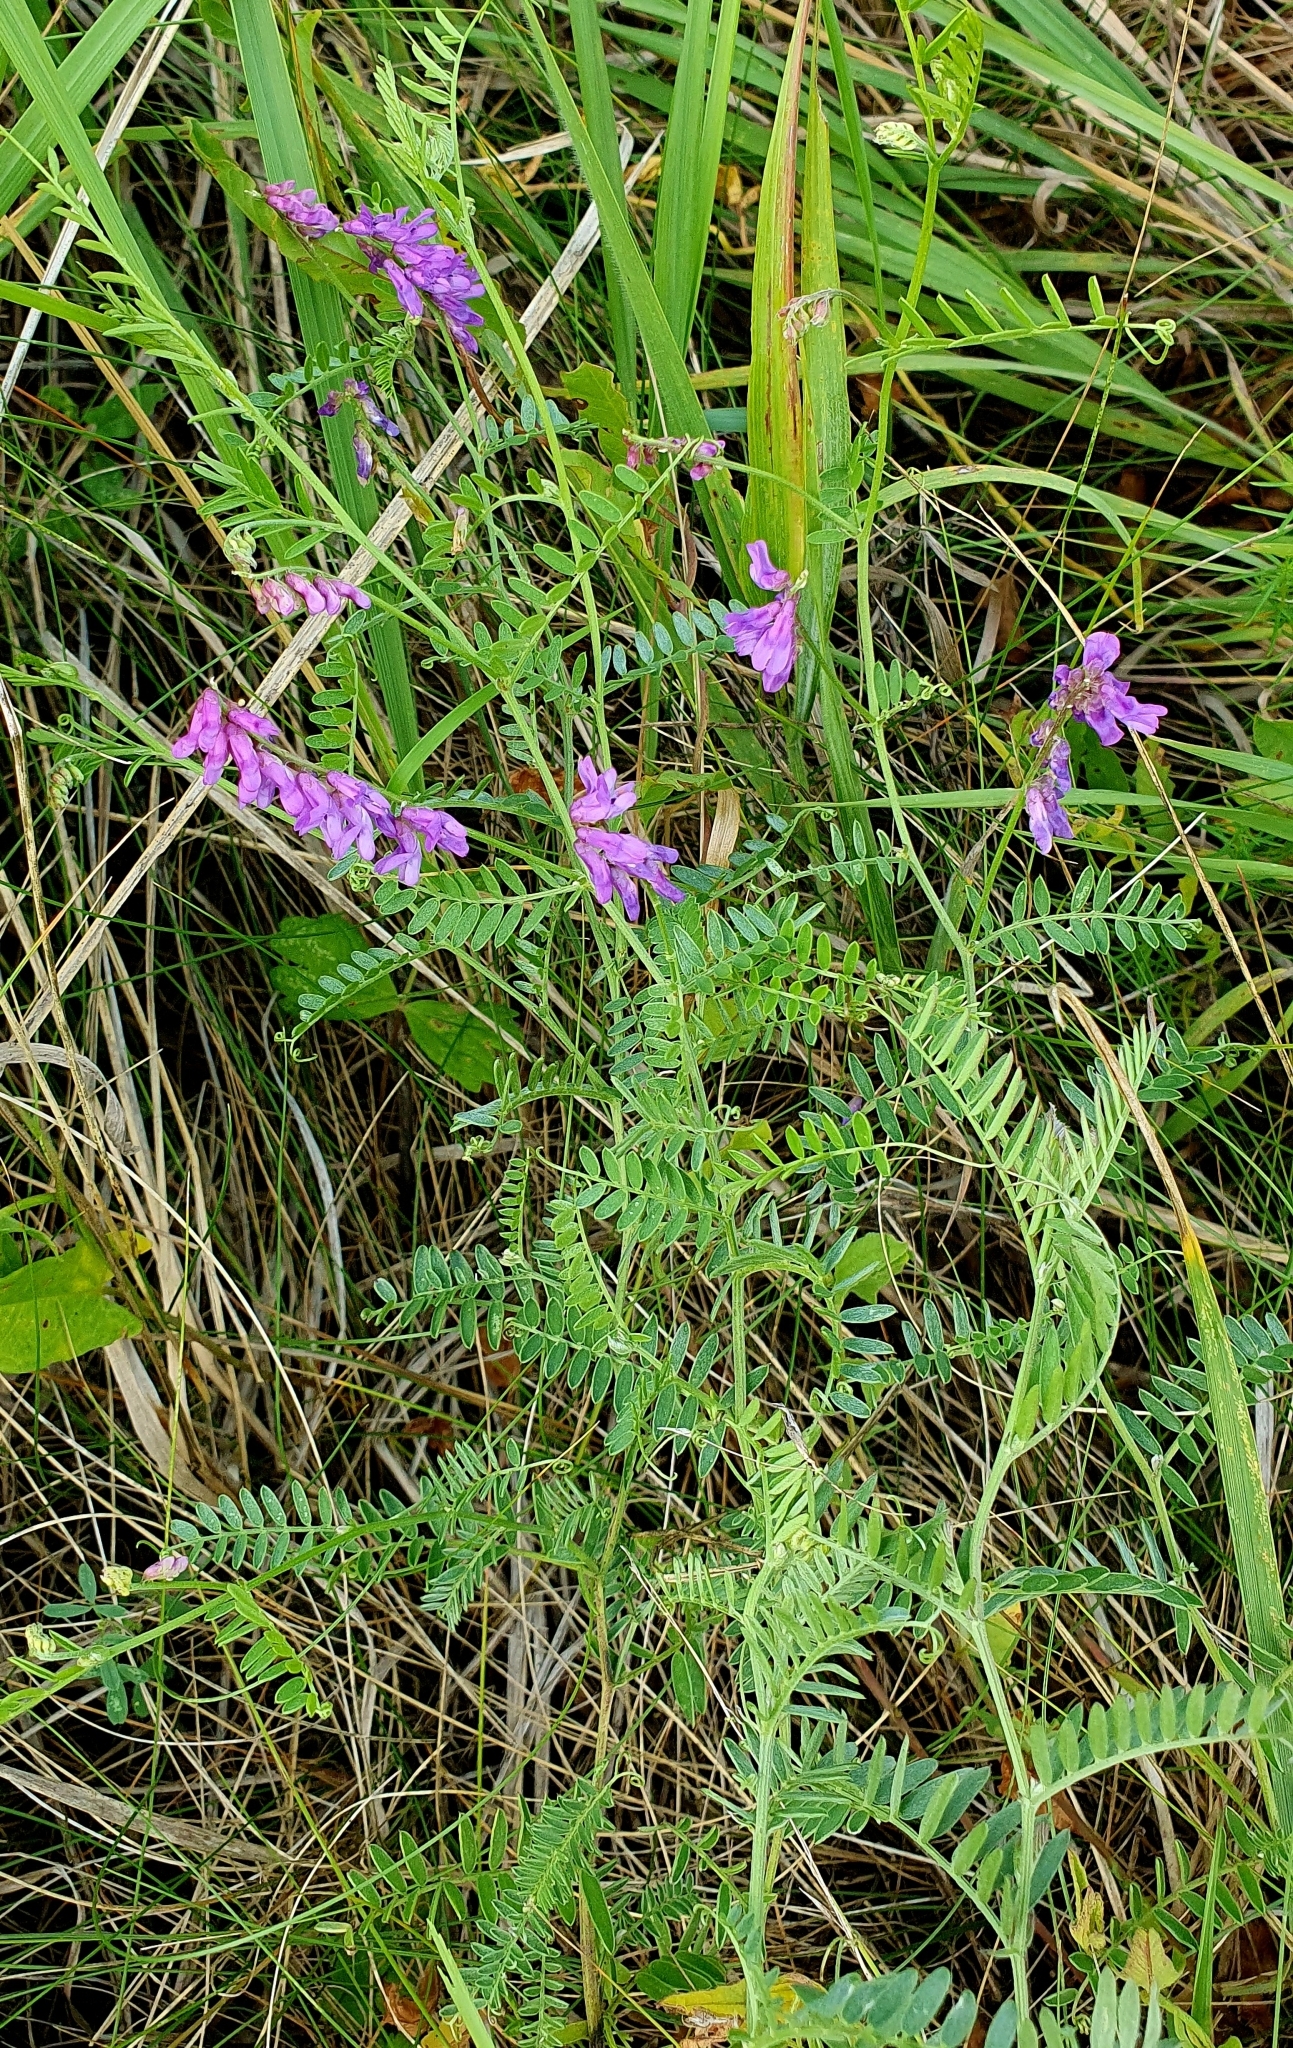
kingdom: Plantae
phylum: Tracheophyta
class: Magnoliopsida
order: Fabales
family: Fabaceae
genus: Vicia
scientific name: Vicia cracca
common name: Bird vetch
